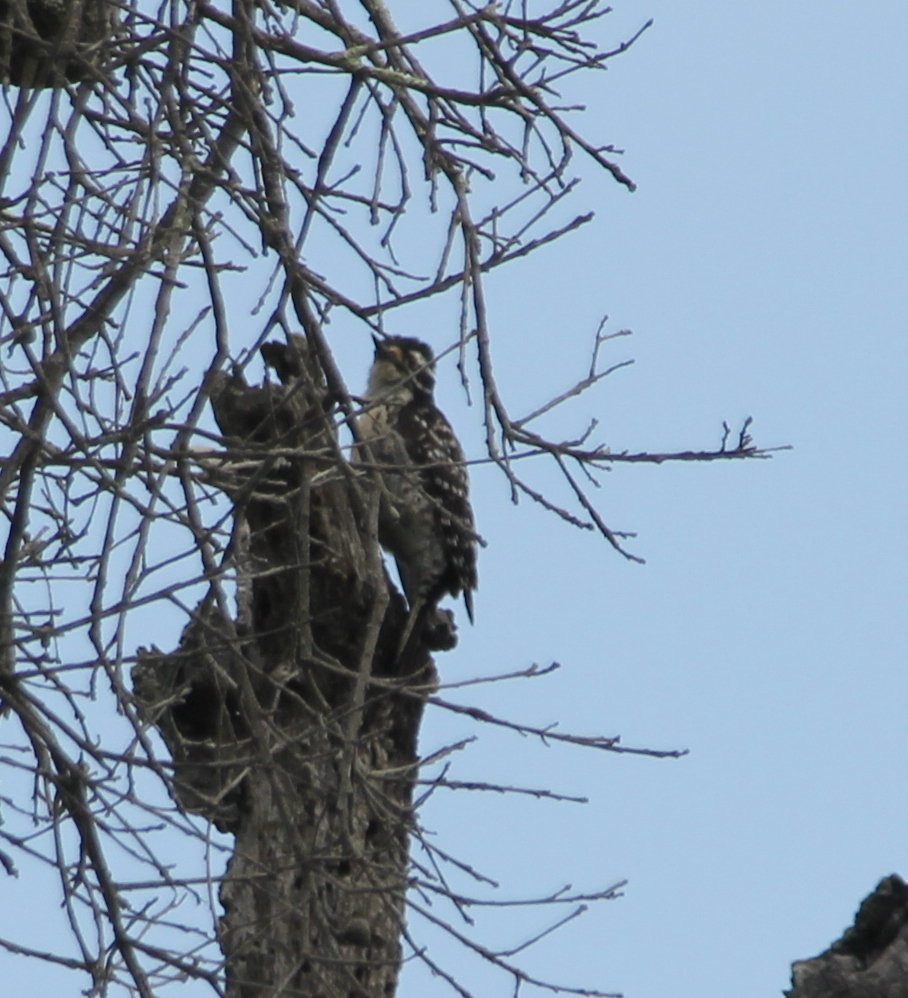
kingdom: Animalia
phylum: Chordata
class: Aves
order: Piciformes
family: Picidae
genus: Dryobates
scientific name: Dryobates nuttallii
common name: Nuttall's woodpecker
